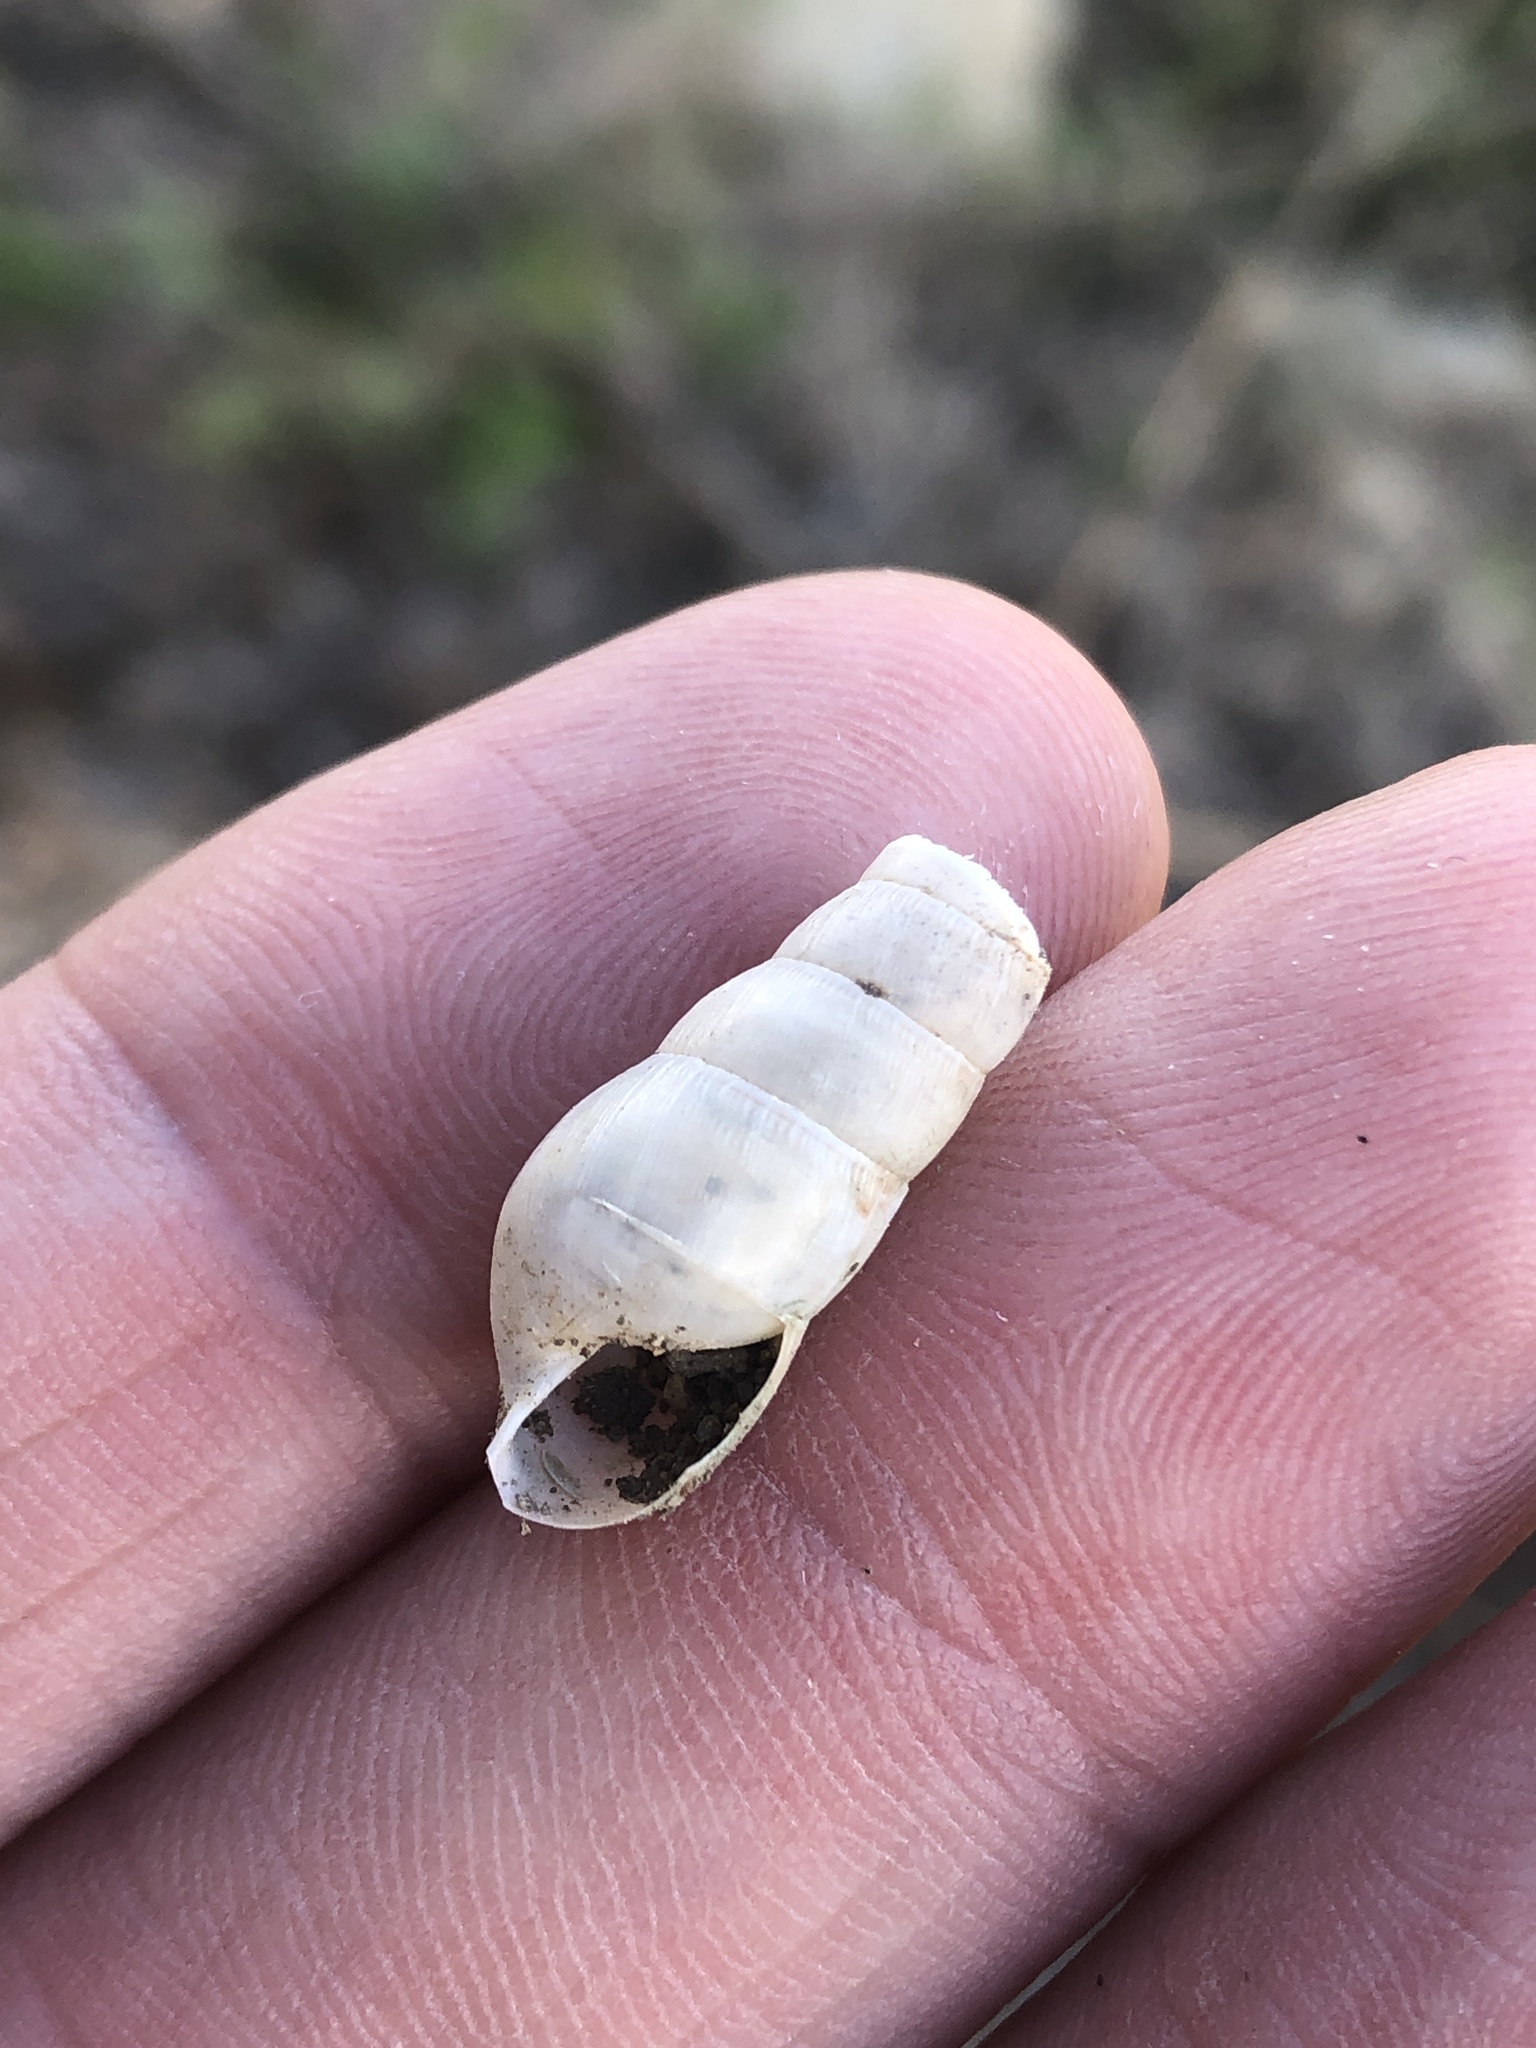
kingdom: Animalia
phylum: Mollusca
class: Gastropoda
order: Stylommatophora
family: Achatinidae
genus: Rumina
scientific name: Rumina decollata
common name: Decollate snail
